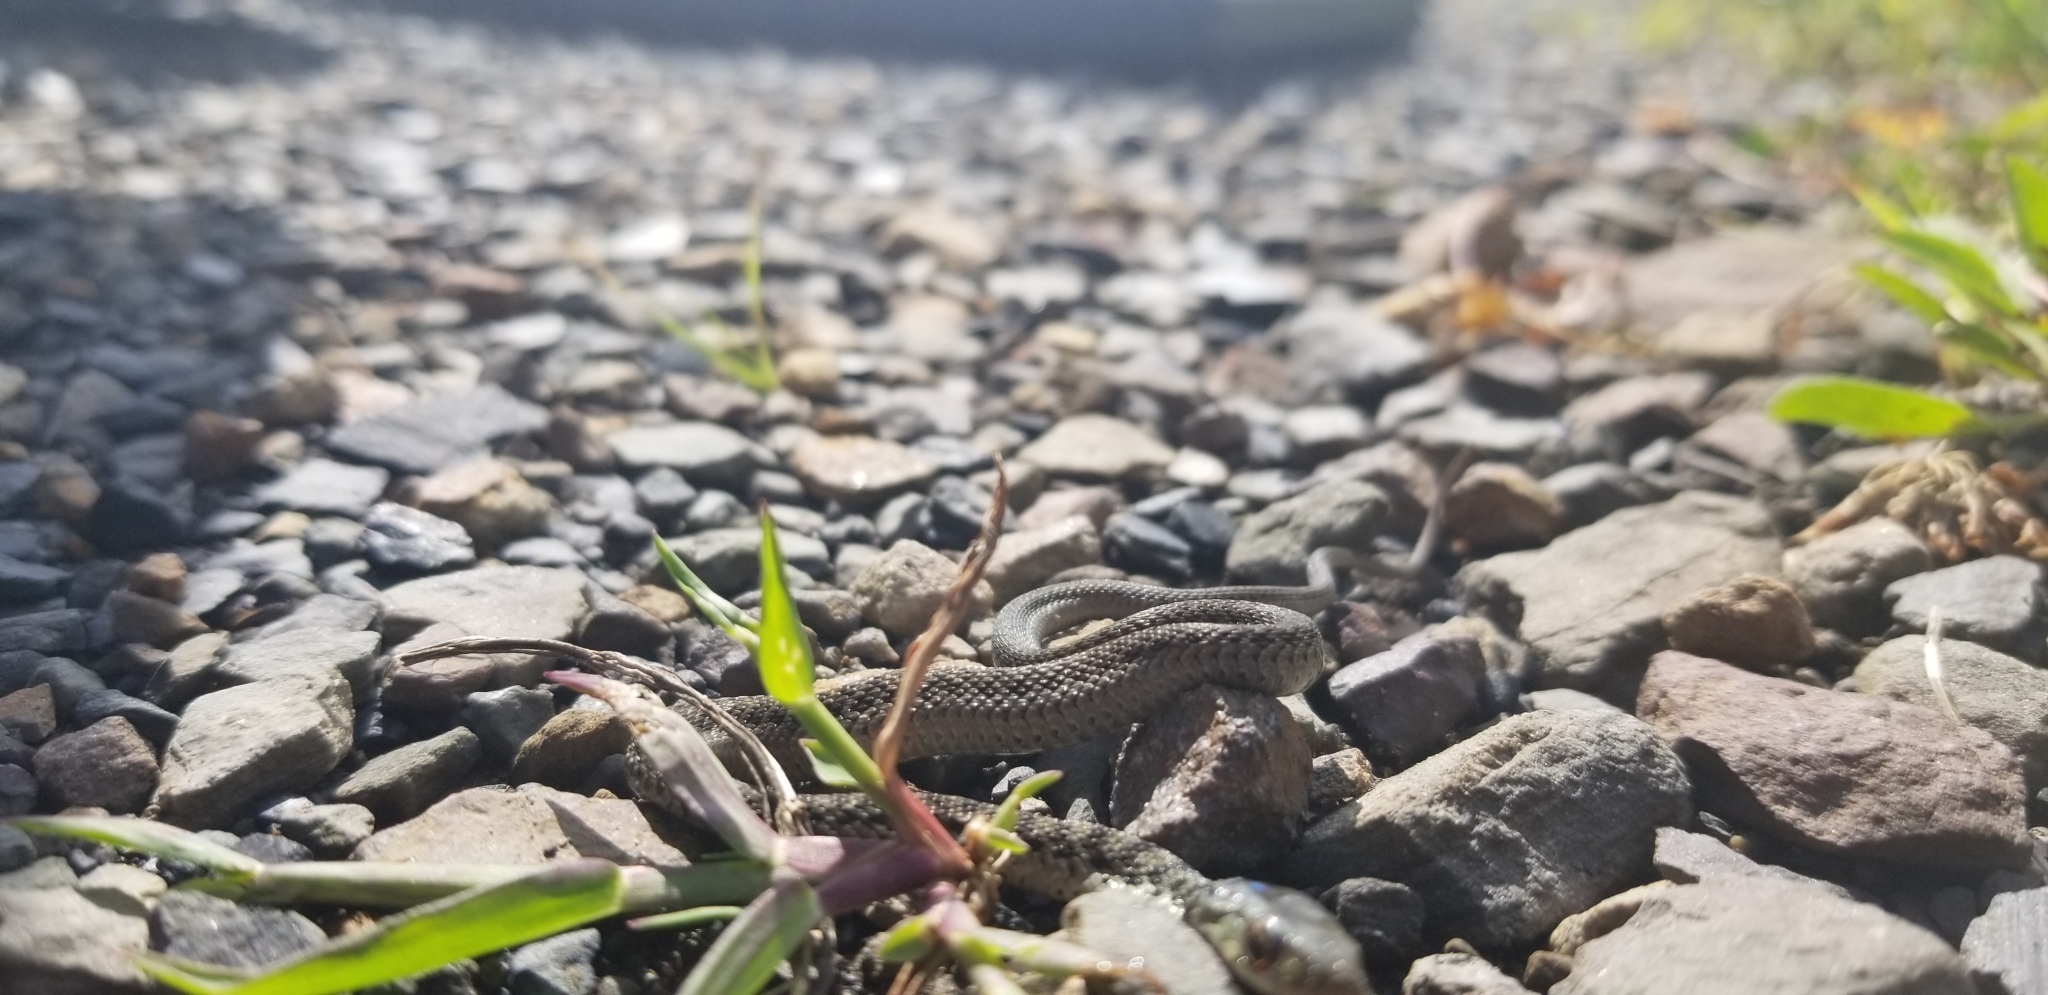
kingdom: Animalia
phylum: Chordata
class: Squamata
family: Colubridae
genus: Thamnophis
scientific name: Thamnophis sirtalis
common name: Common garter snake
